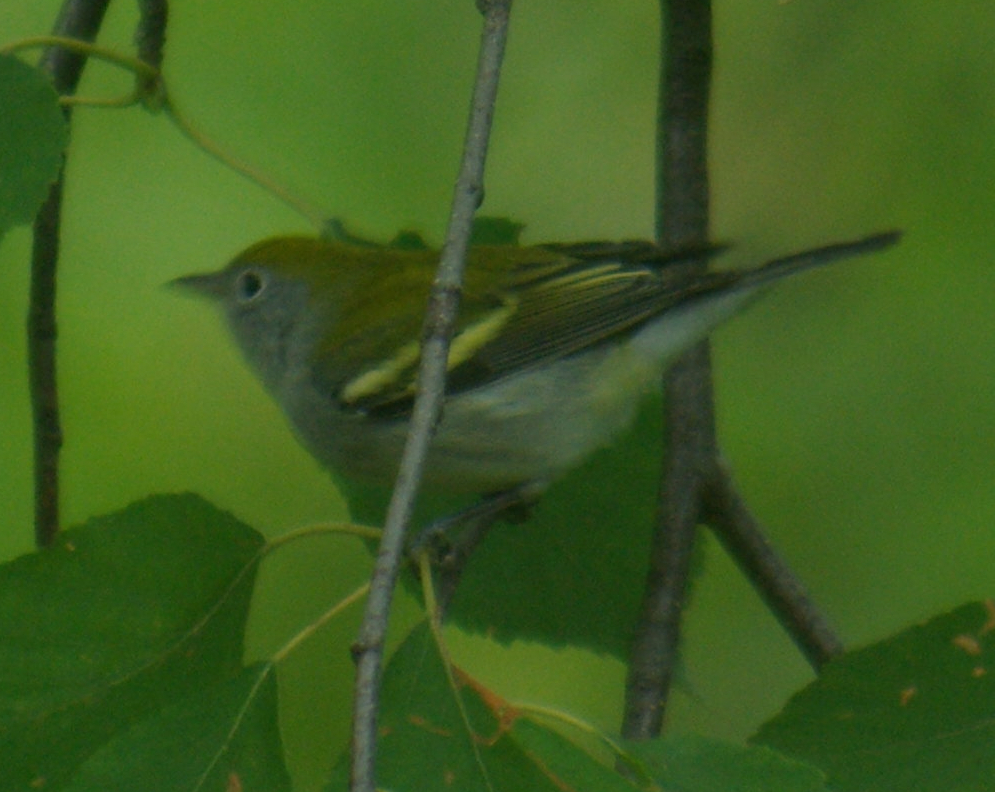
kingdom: Animalia
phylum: Chordata
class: Aves
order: Passeriformes
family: Parulidae
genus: Setophaga
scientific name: Setophaga pensylvanica
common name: Chestnut-sided warbler
